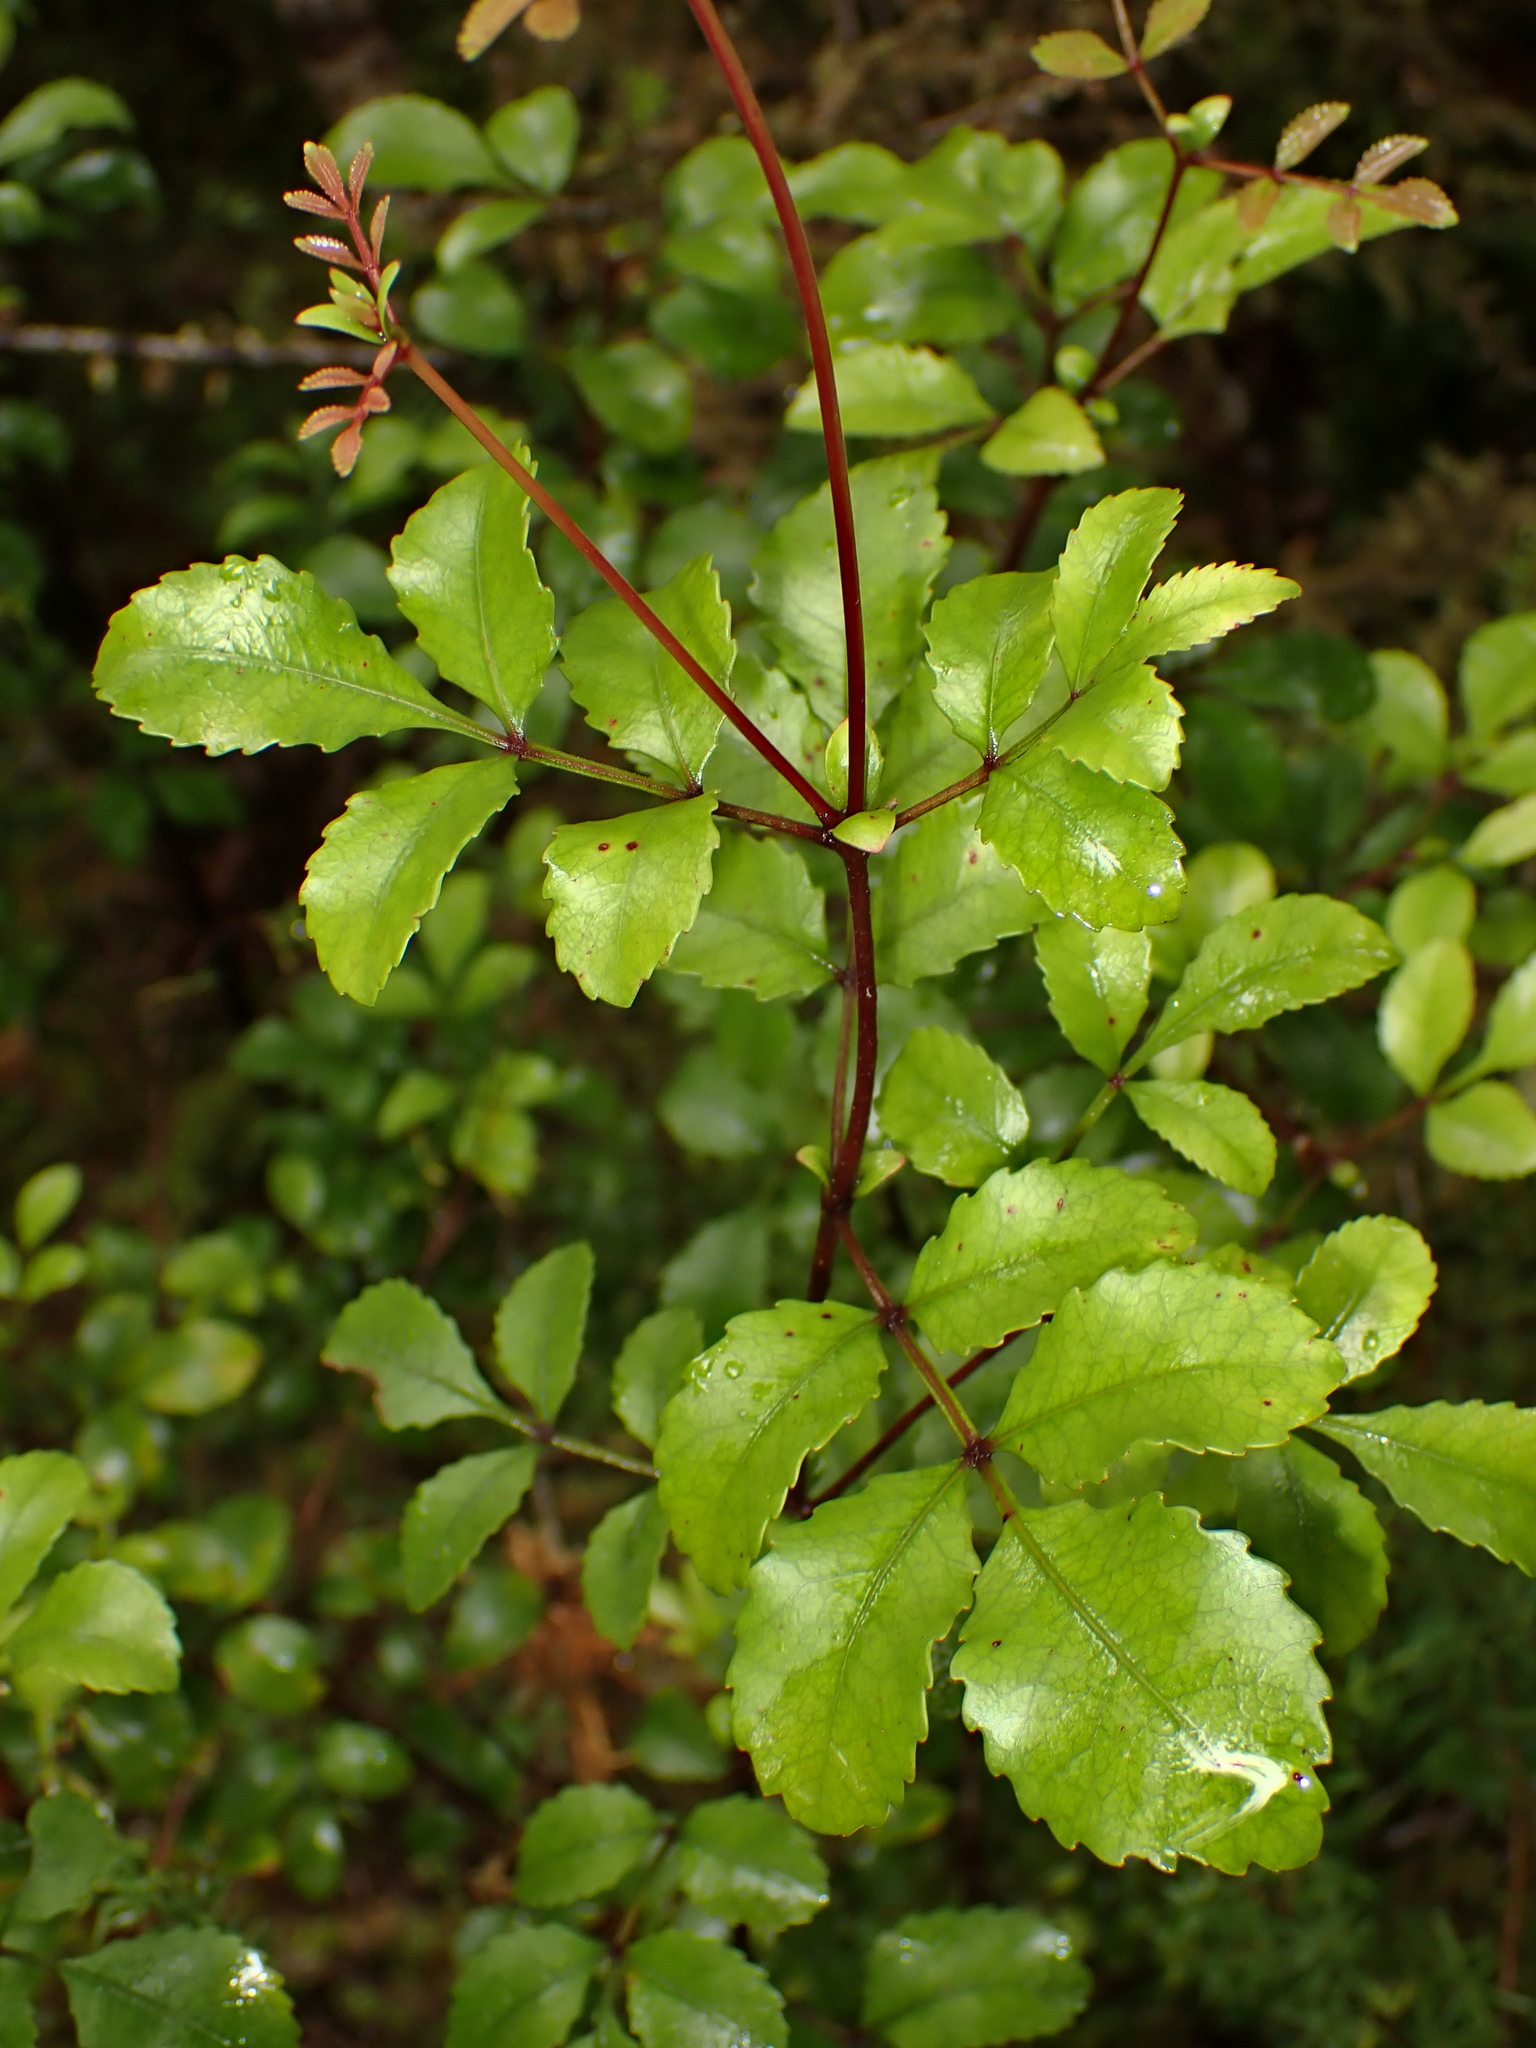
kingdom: Plantae
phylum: Tracheophyta
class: Magnoliopsida
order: Oxalidales
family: Cunoniaceae
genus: Pterophylla
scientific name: Pterophylla sylvicola
